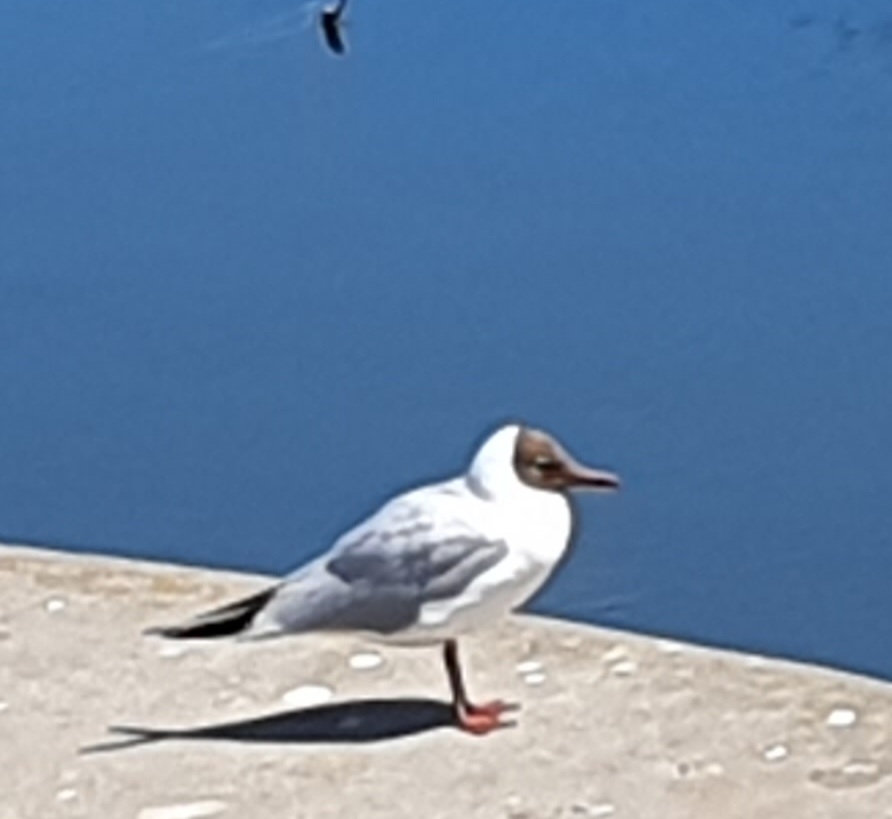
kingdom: Animalia
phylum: Chordata
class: Aves
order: Charadriiformes
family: Laridae
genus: Chroicocephalus
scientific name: Chroicocephalus ridibundus
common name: Black-headed gull
